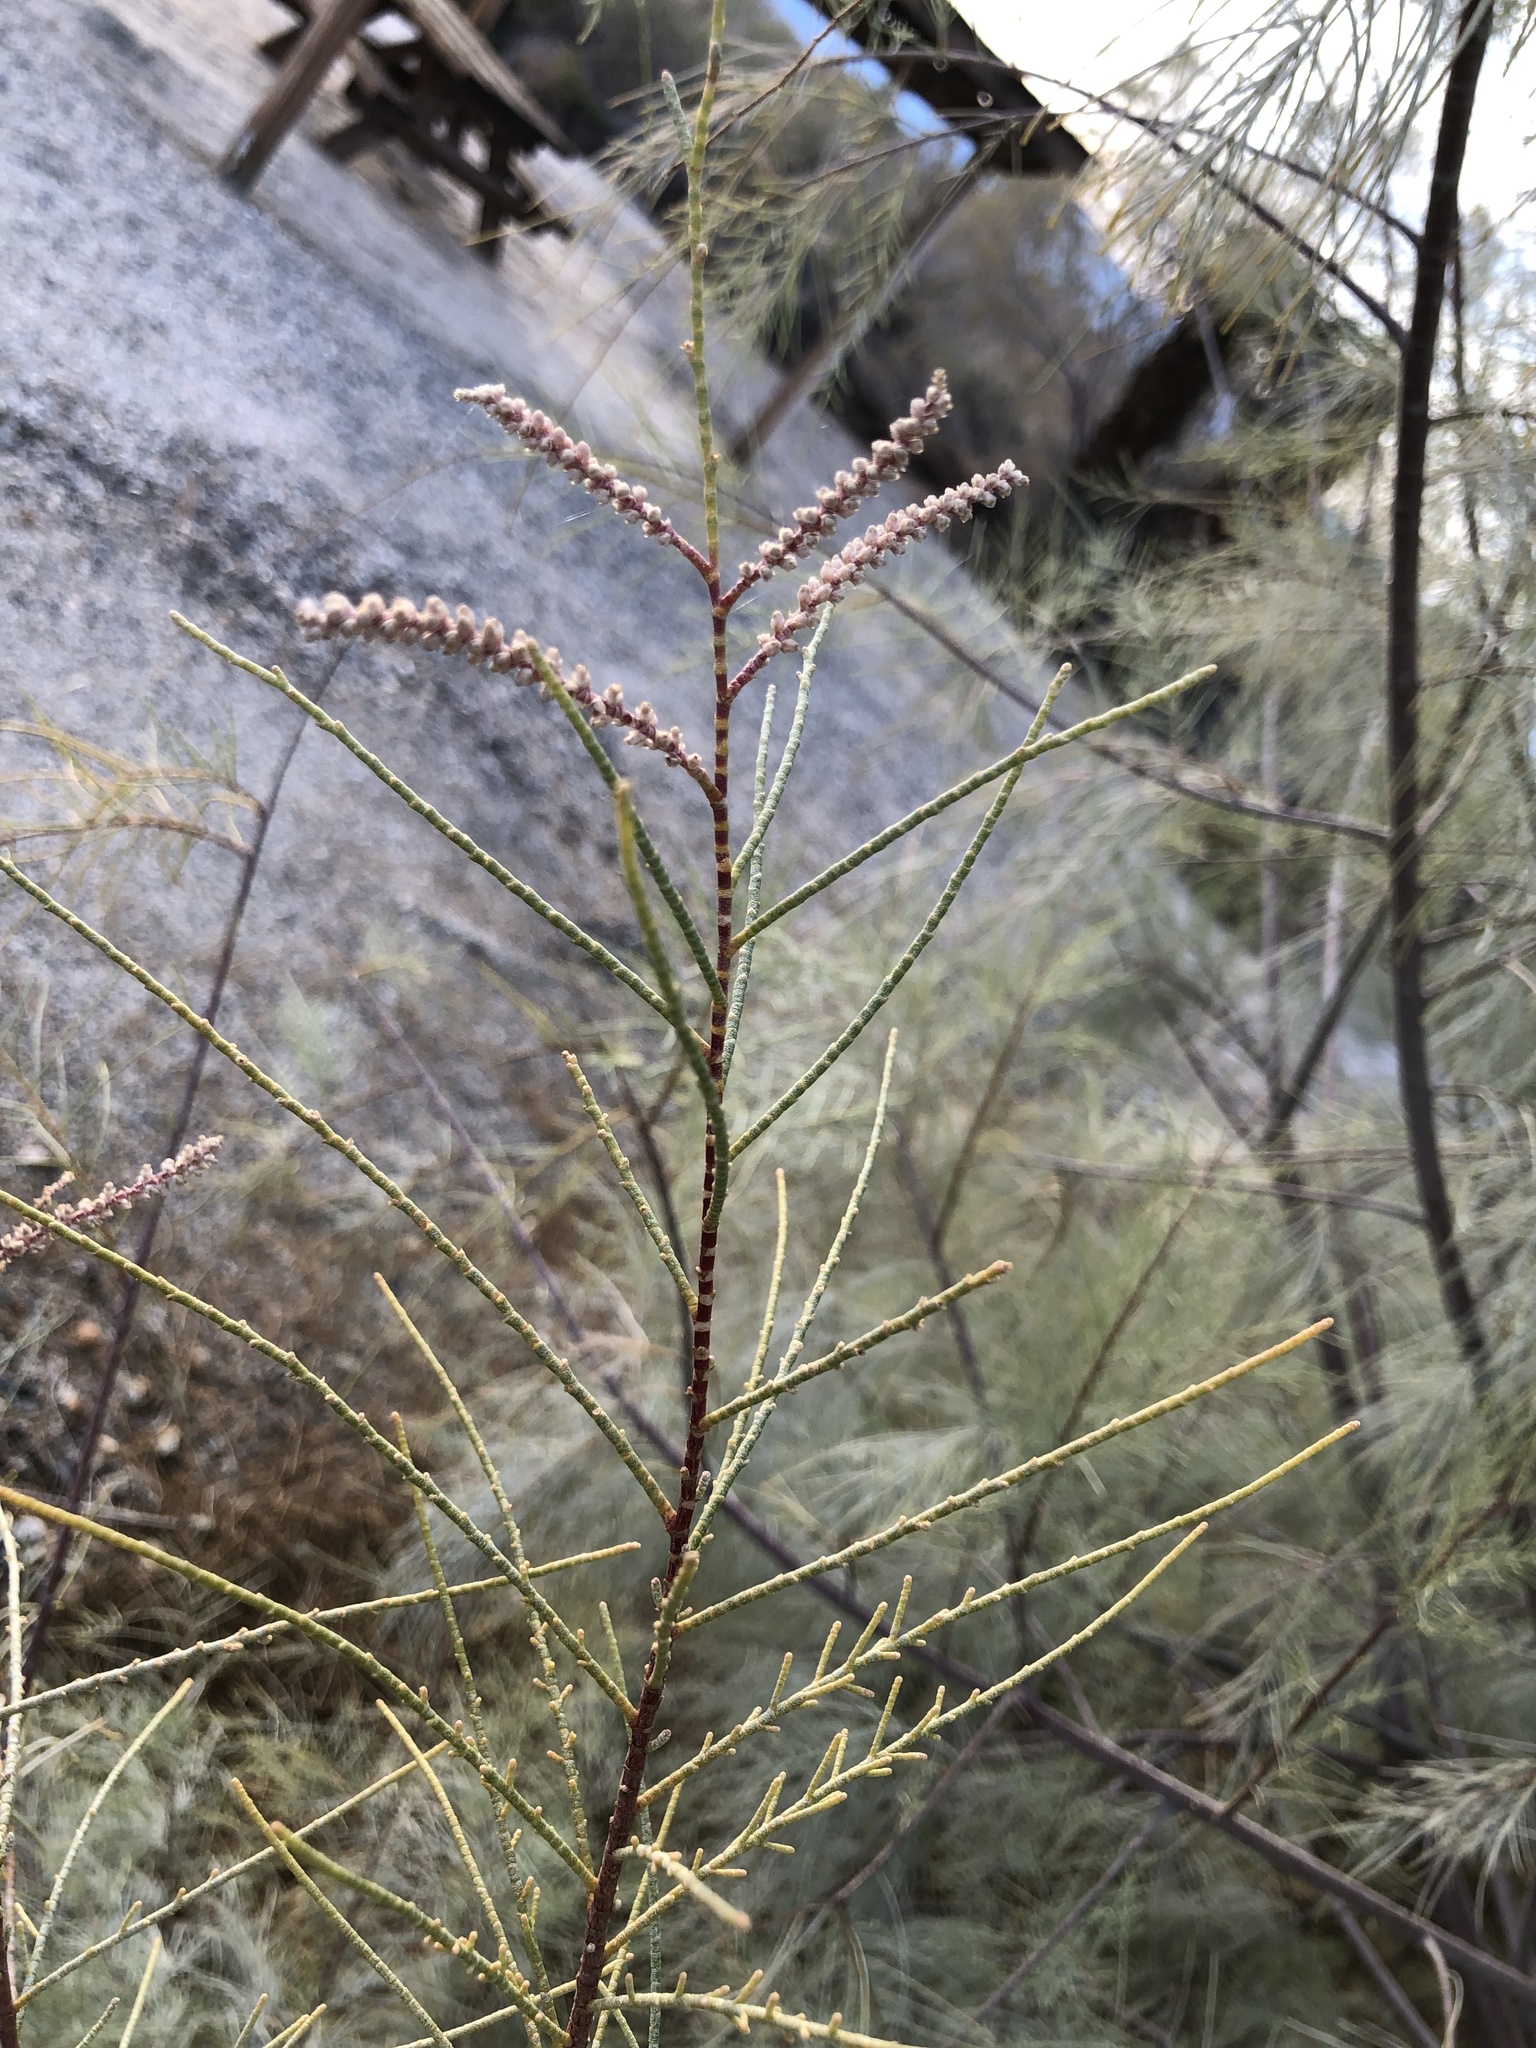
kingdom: Plantae
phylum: Tracheophyta
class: Magnoliopsida
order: Caryophyllales
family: Tamaricaceae
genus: Tamarix
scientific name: Tamarix aphylla
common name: Athel tamarisk
